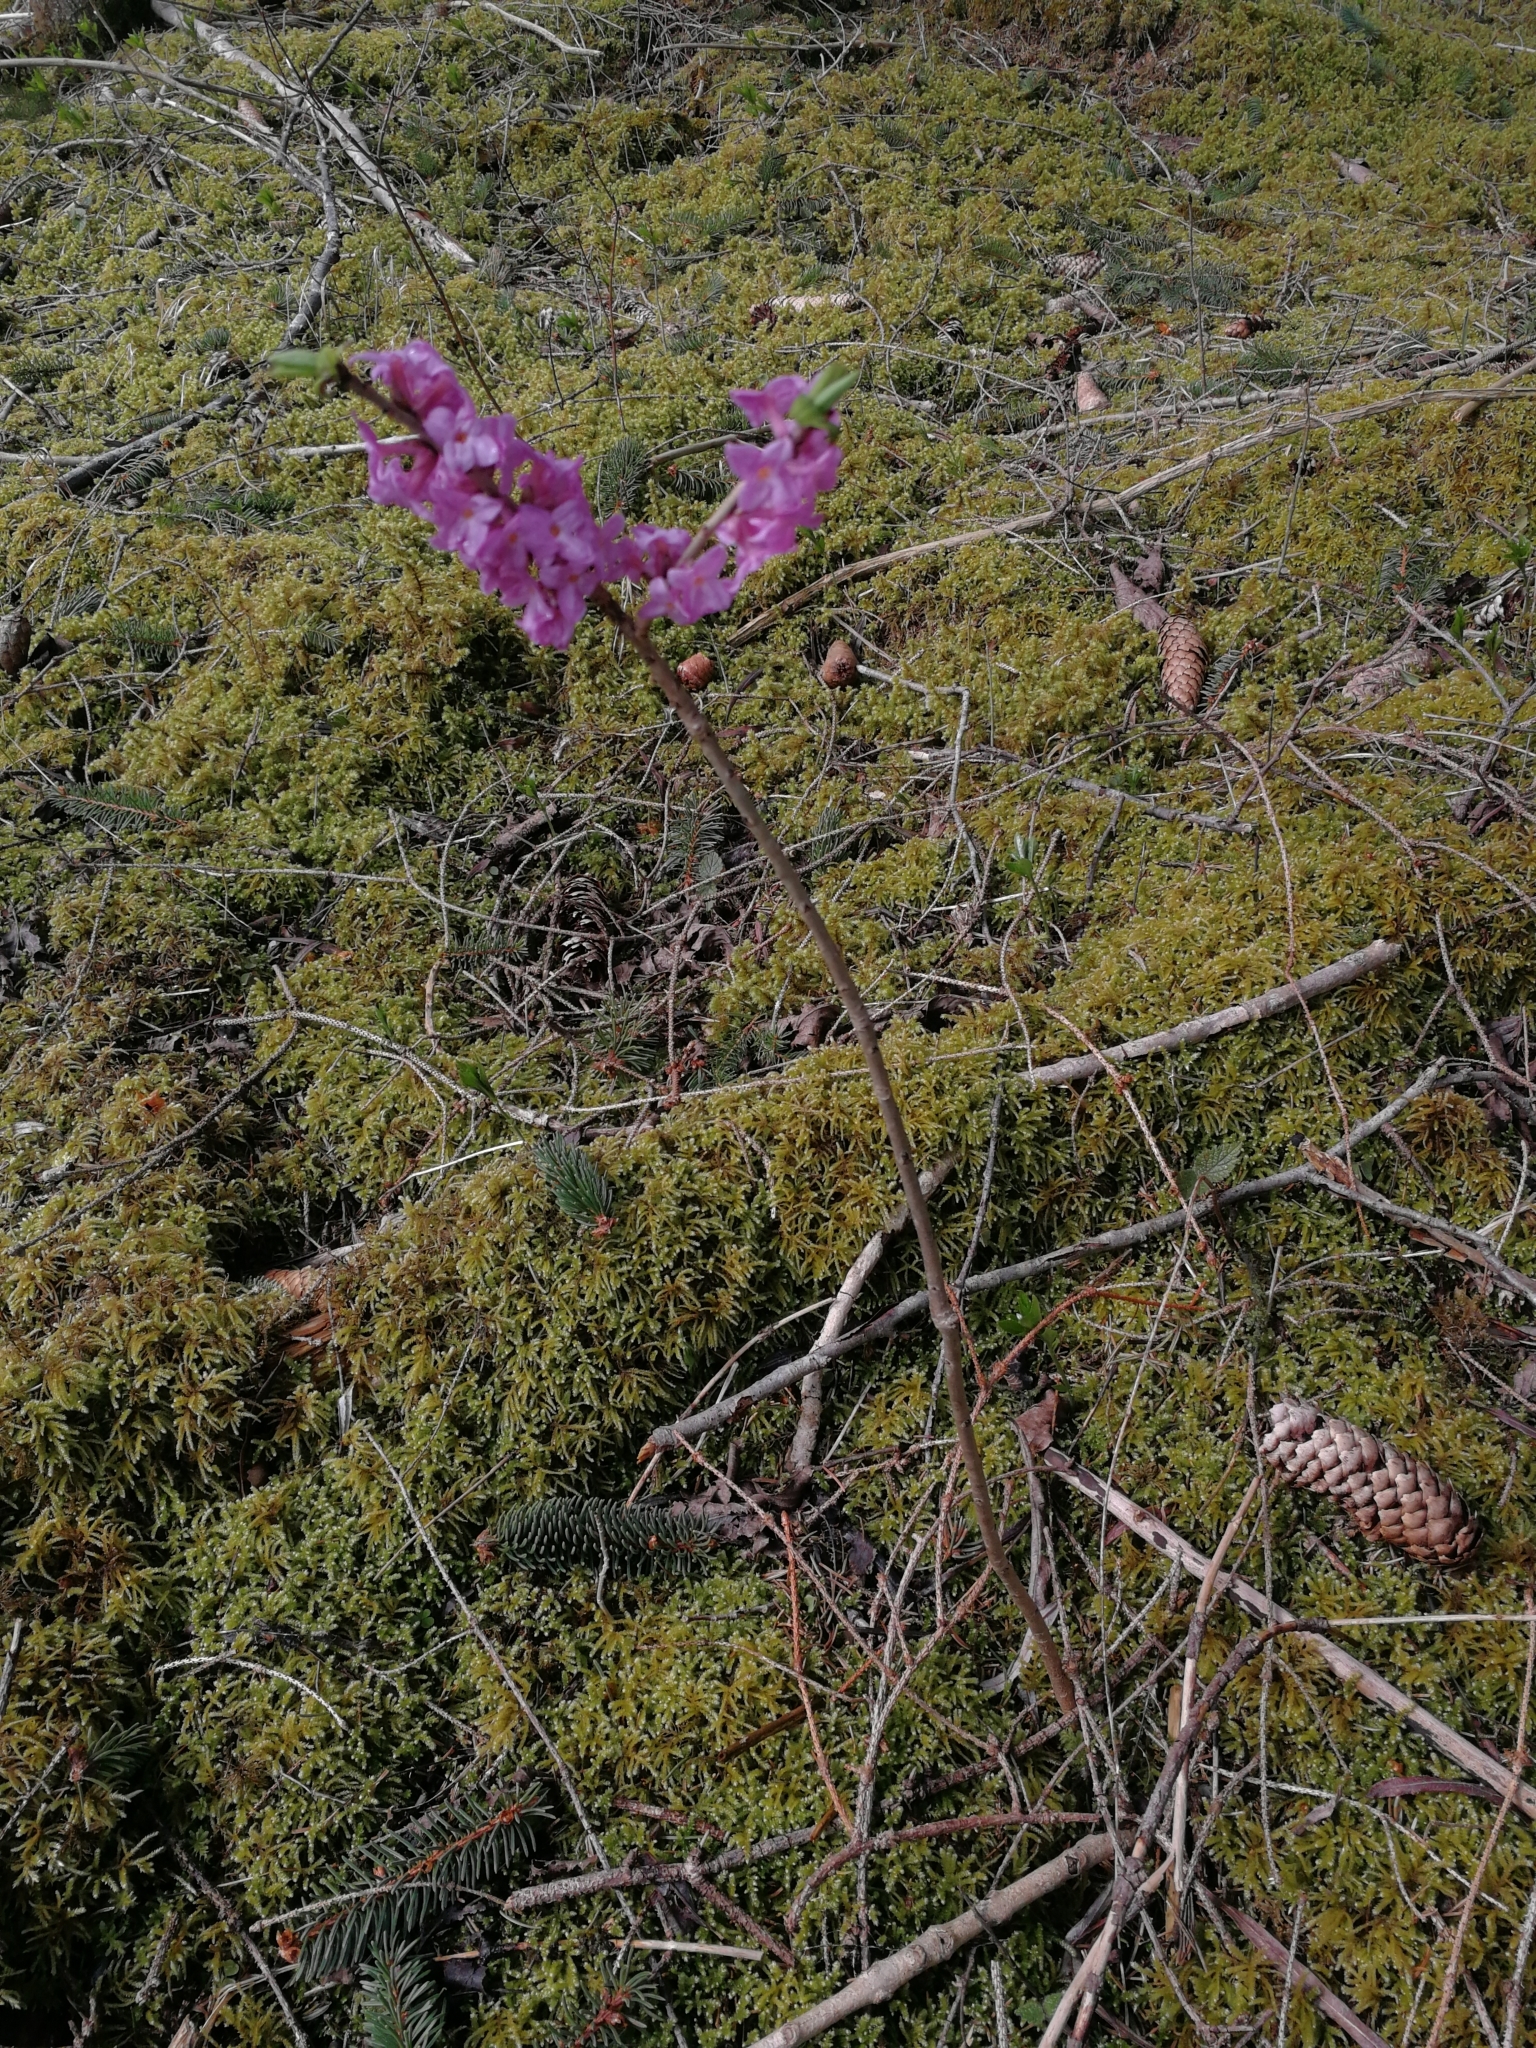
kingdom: Plantae
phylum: Tracheophyta
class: Magnoliopsida
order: Malvales
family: Thymelaeaceae
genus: Daphne
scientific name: Daphne mezereum
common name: Mezereon
